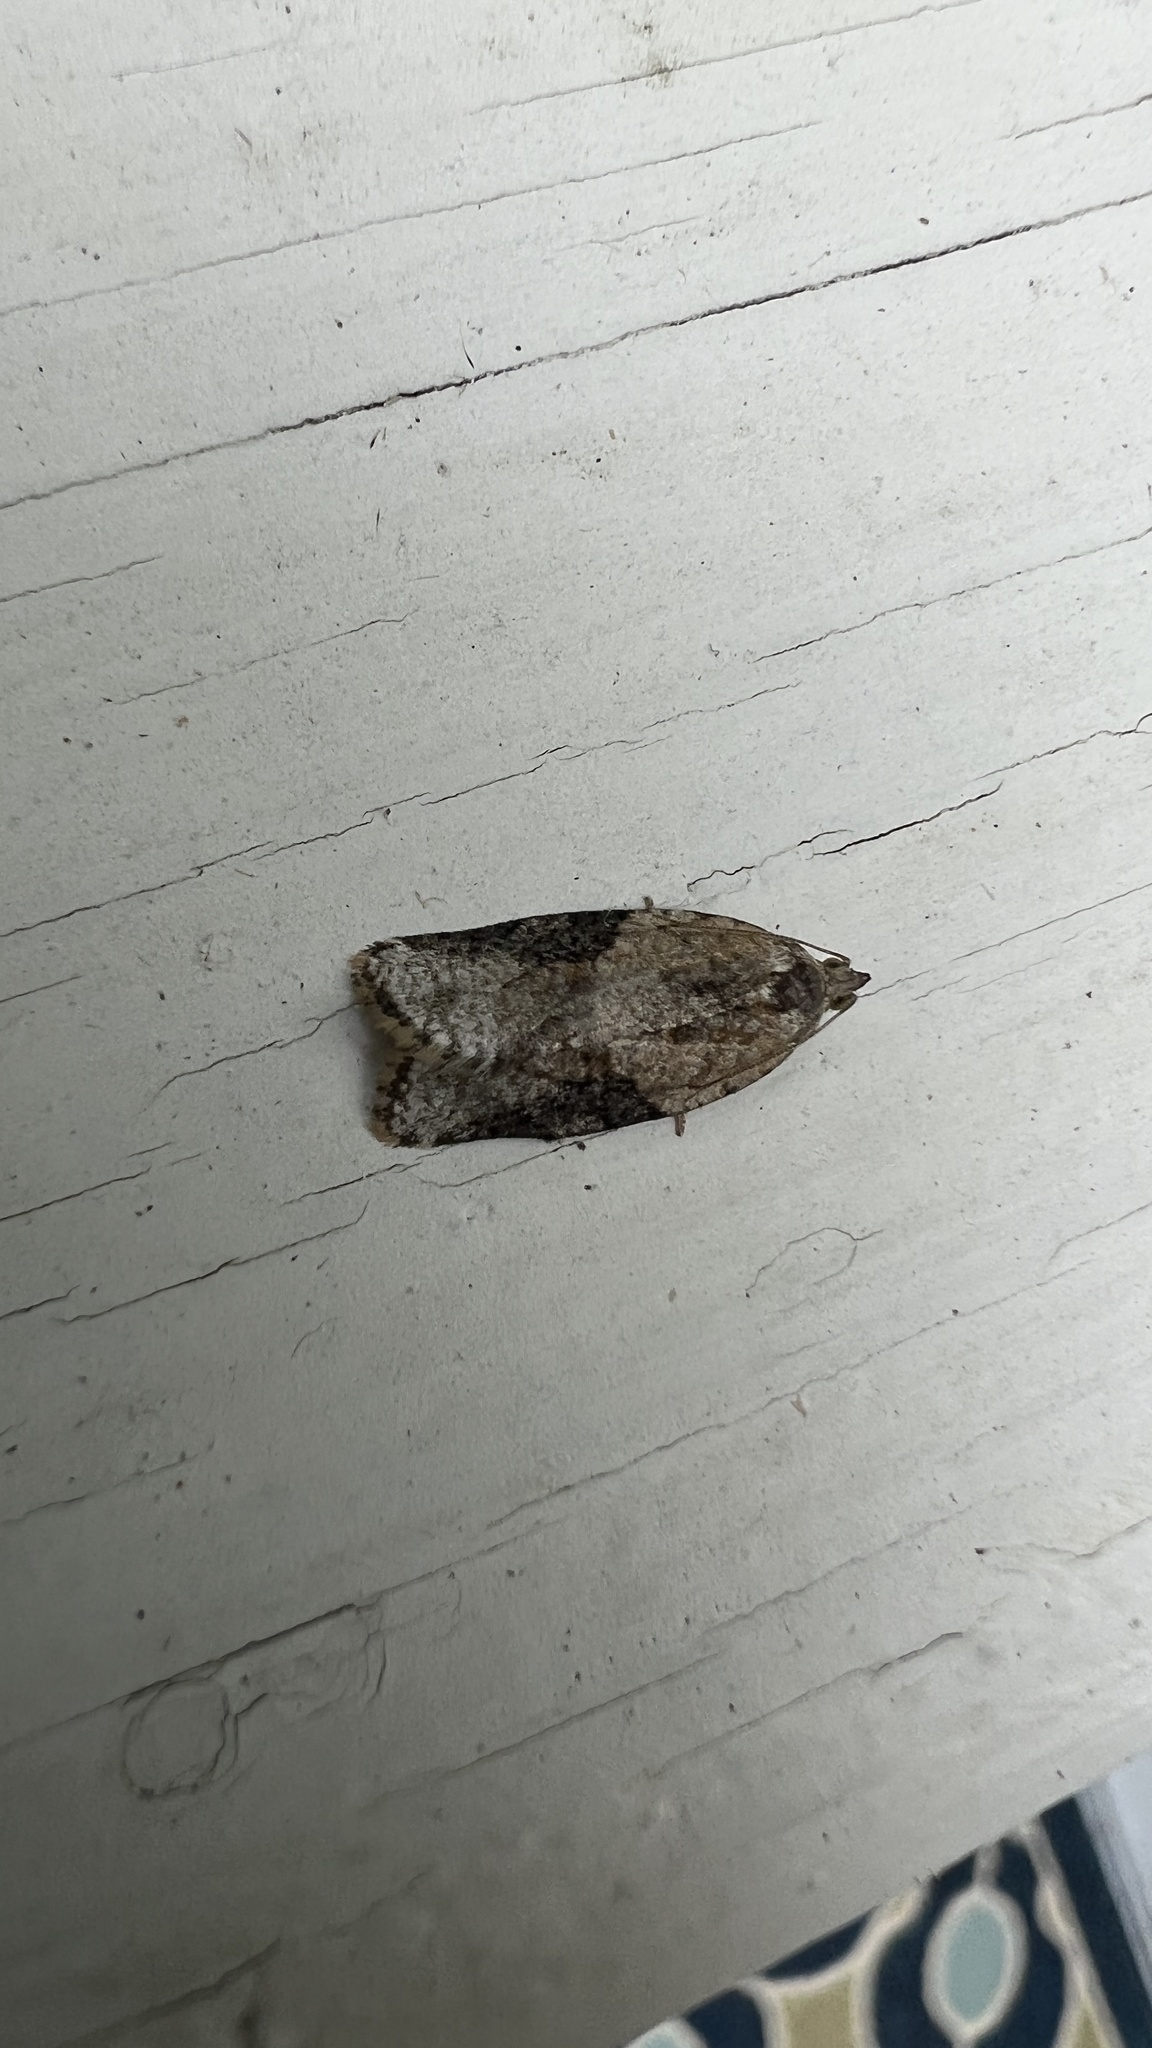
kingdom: Animalia
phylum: Arthropoda
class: Insecta
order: Lepidoptera
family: Tortricidae
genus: Argyrotaenia
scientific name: Argyrotaenia mariana
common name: Gray-banded leafroller moth
